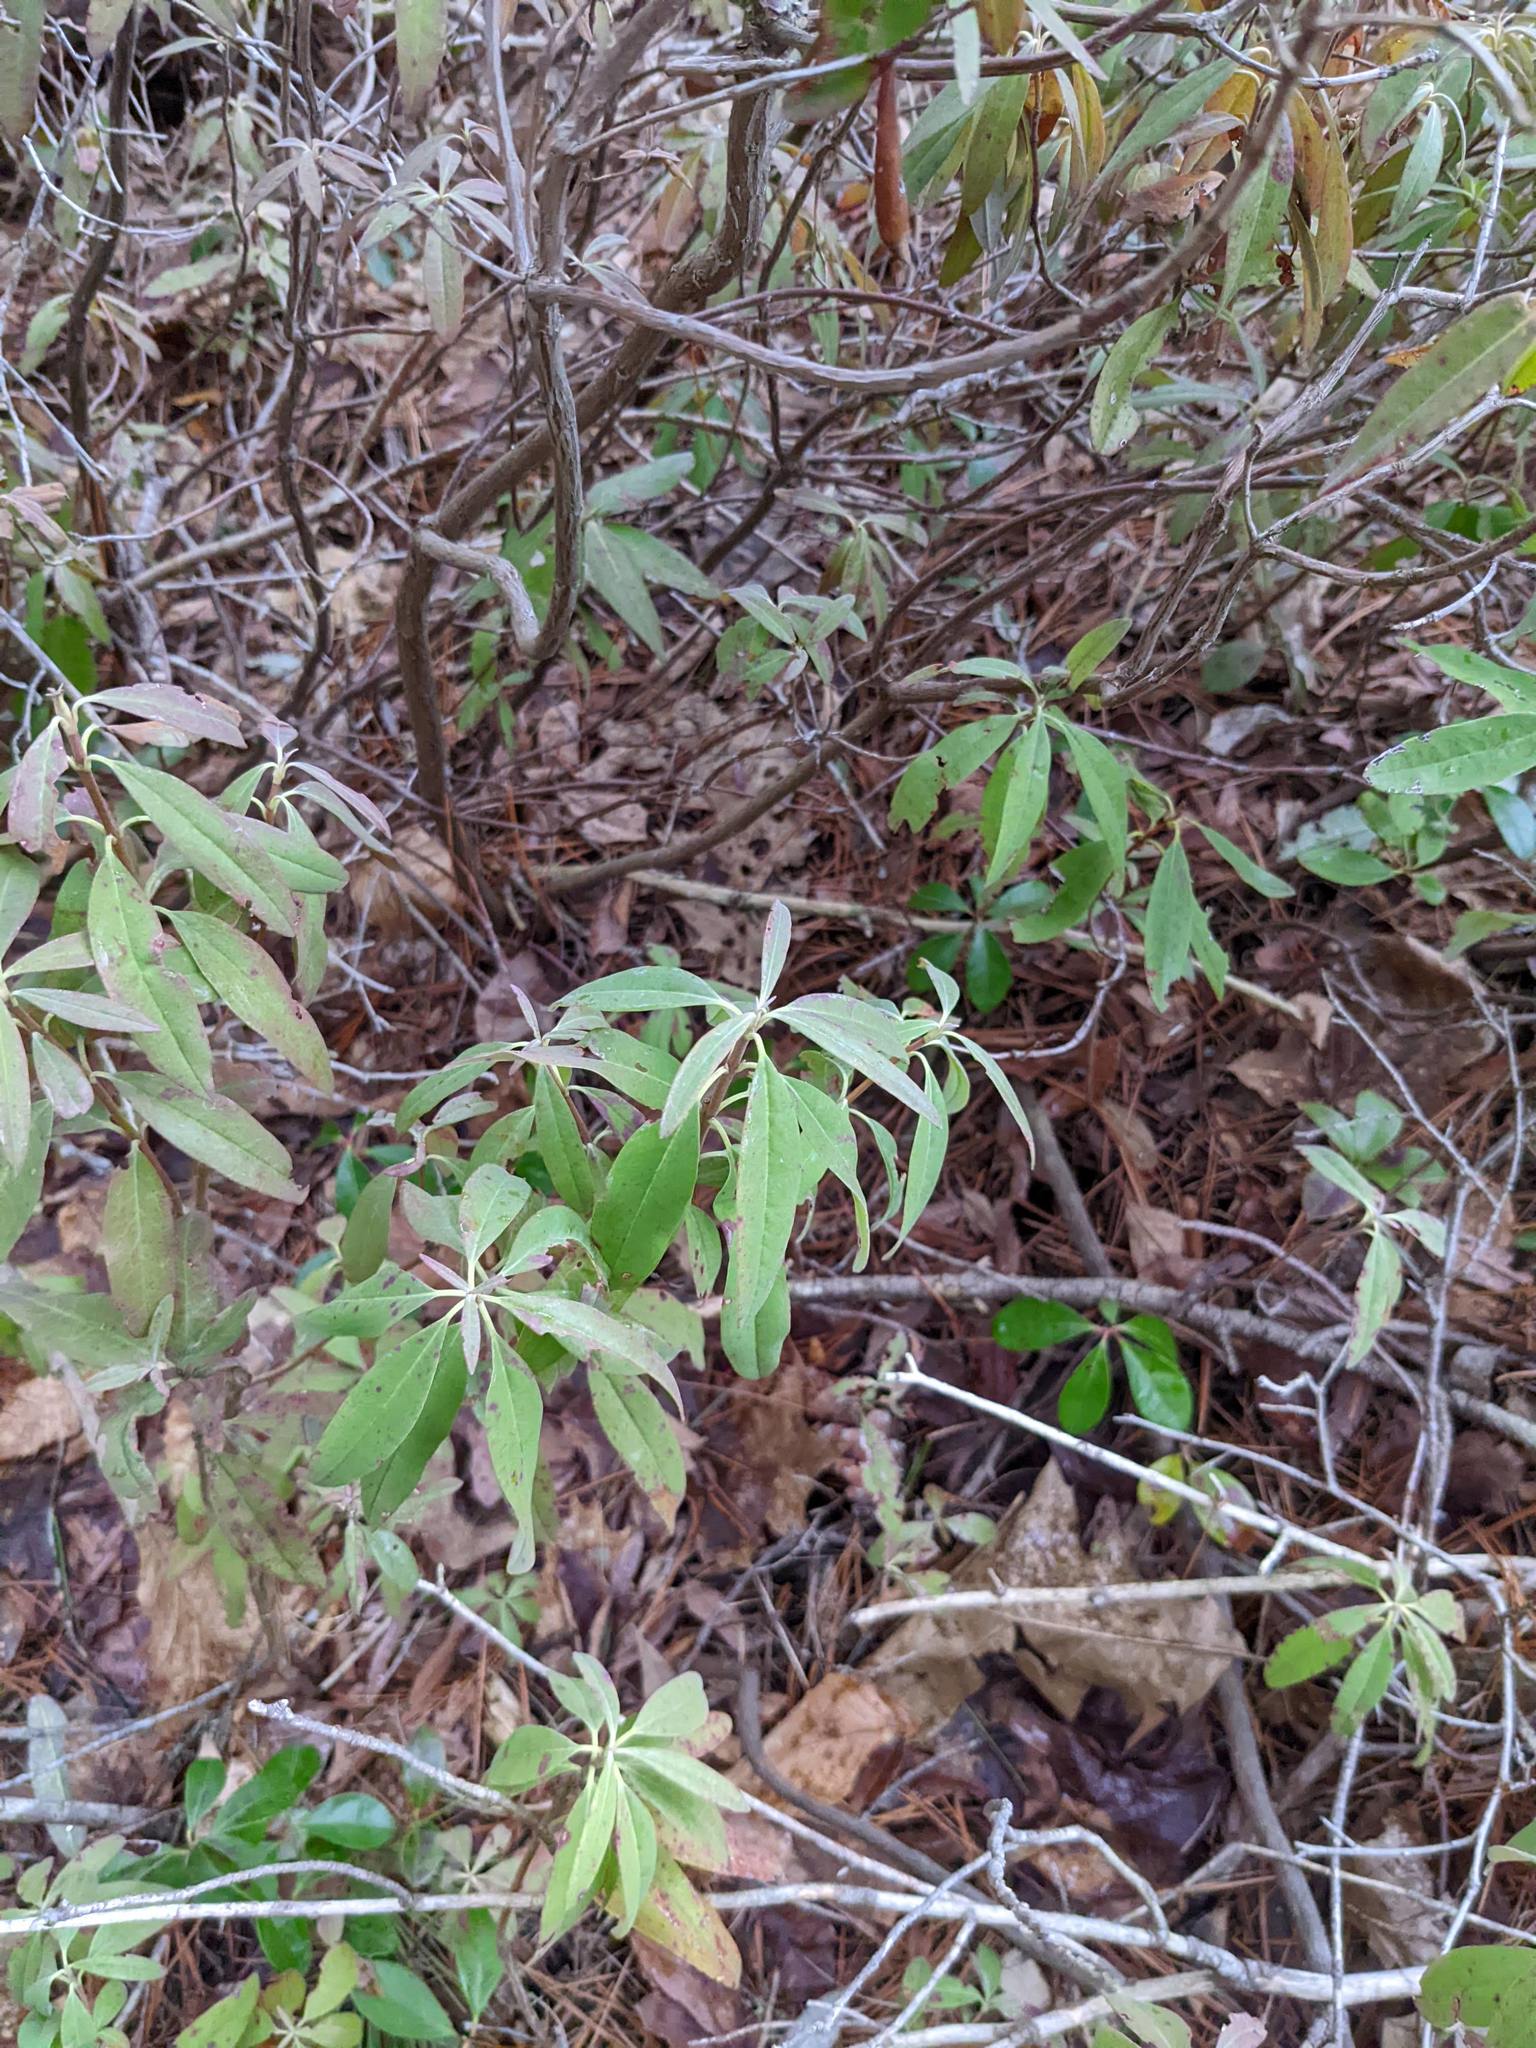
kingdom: Plantae
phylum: Tracheophyta
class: Magnoliopsida
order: Ericales
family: Ericaceae
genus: Kalmia
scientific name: Kalmia angustifolia
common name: Sheep-laurel
